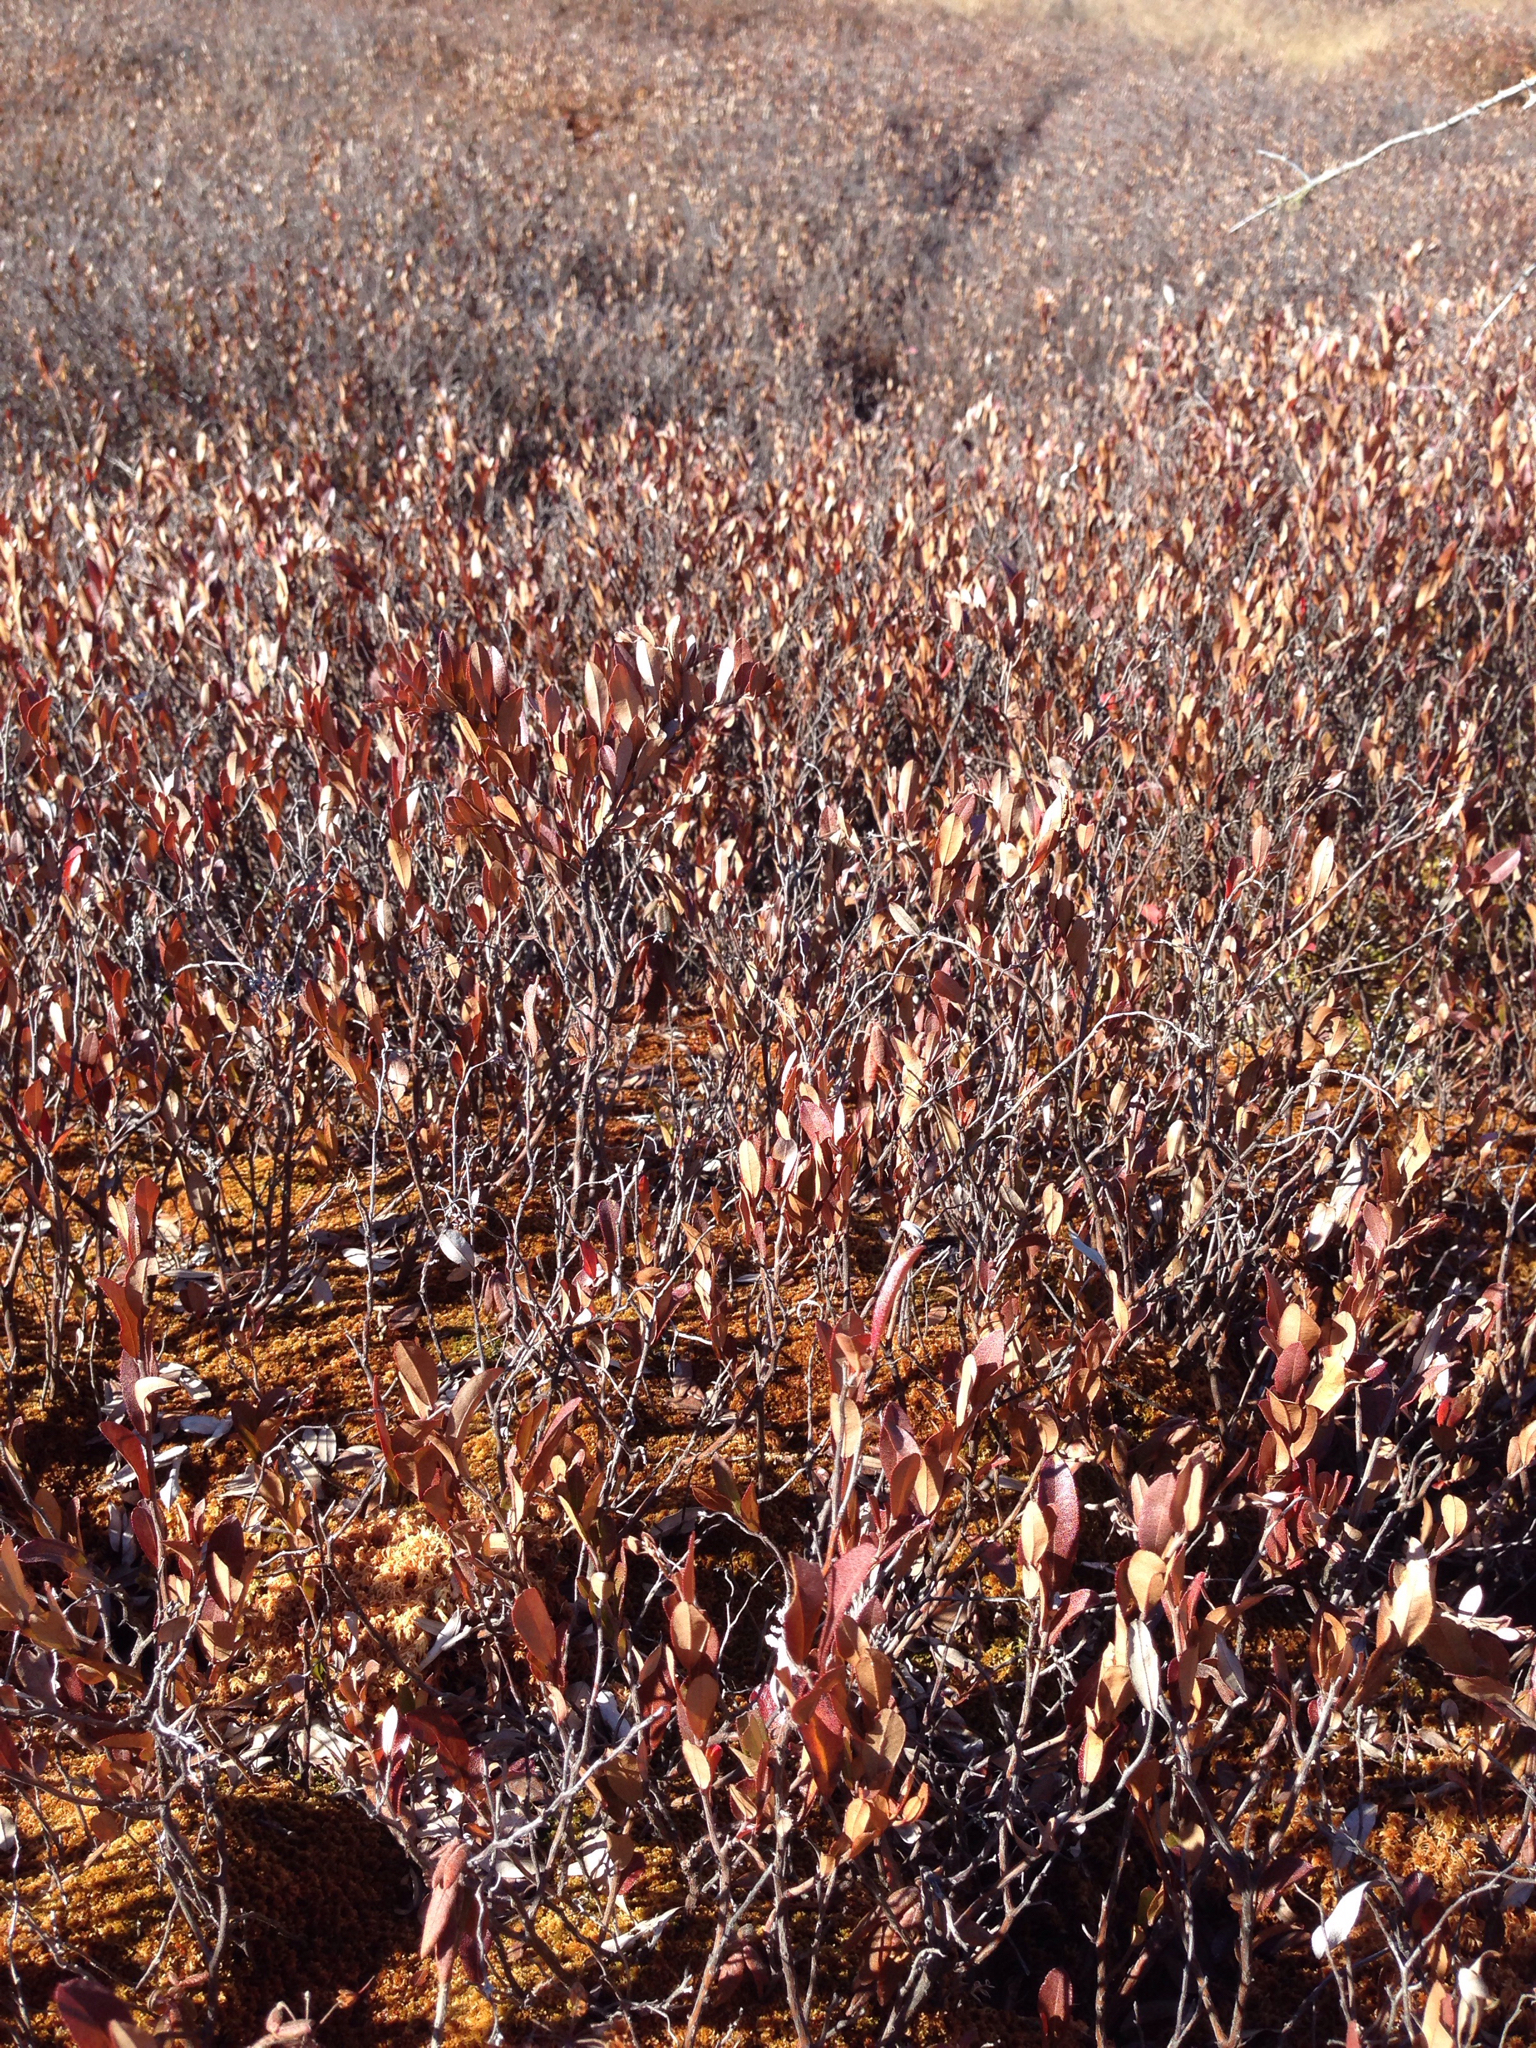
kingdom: Plantae
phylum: Tracheophyta
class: Magnoliopsida
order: Ericales
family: Ericaceae
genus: Chamaedaphne
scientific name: Chamaedaphne calyculata
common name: Leatherleaf
